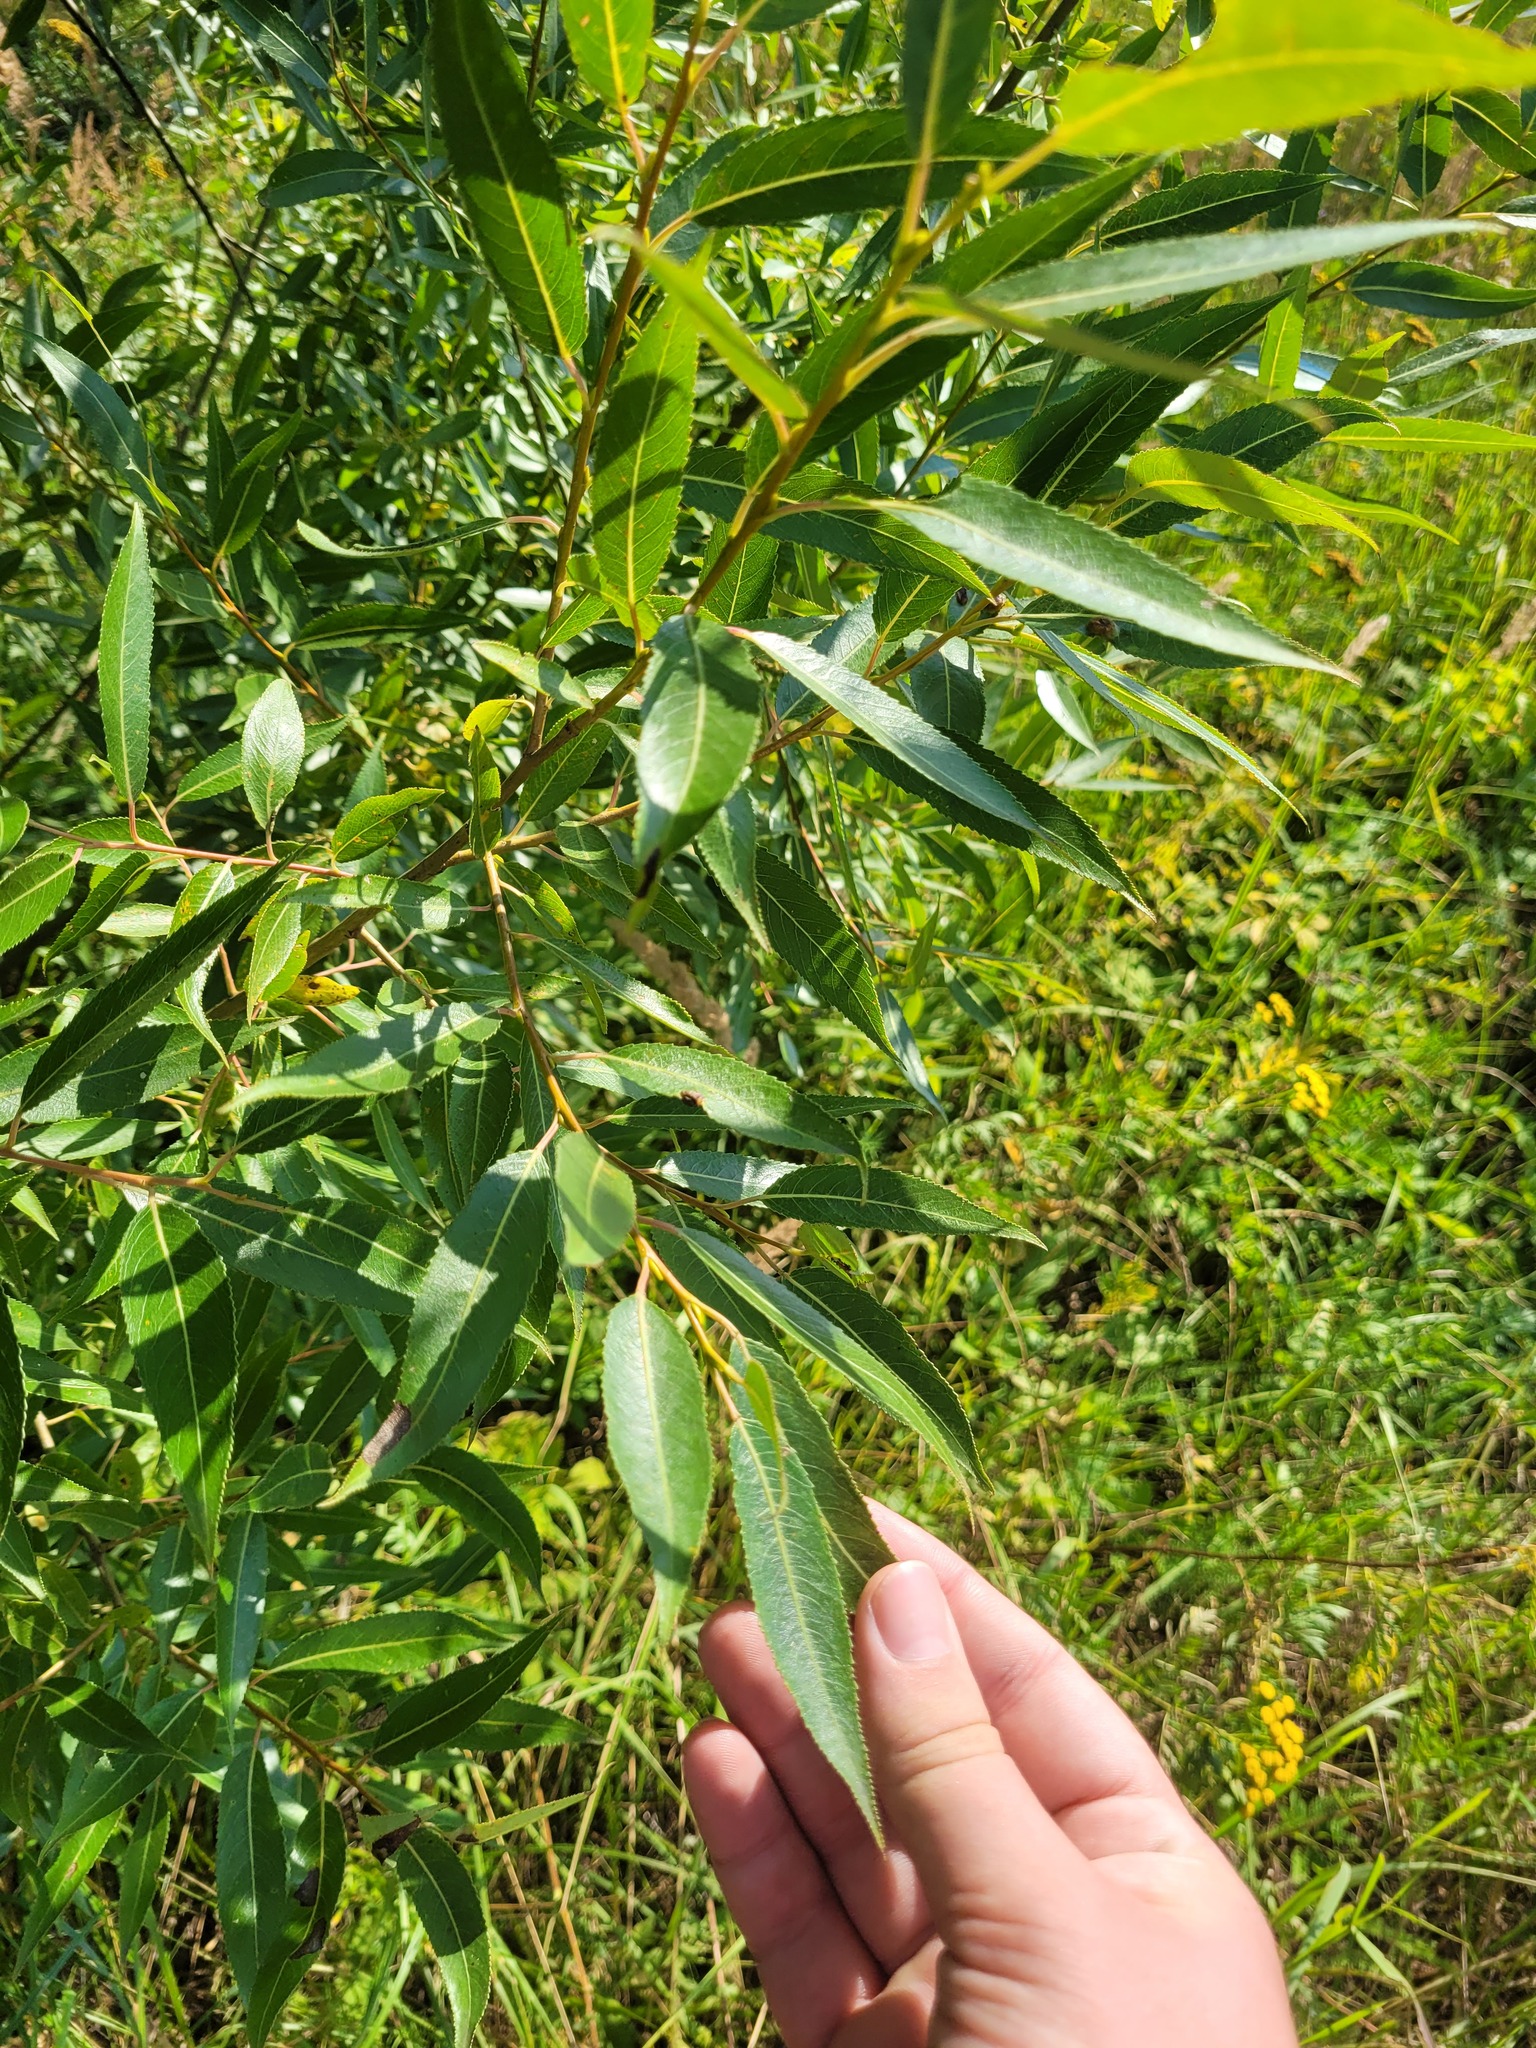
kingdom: Plantae
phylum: Tracheophyta
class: Magnoliopsida
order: Malpighiales
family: Salicaceae
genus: Salix
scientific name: Salix alba
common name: White willow
